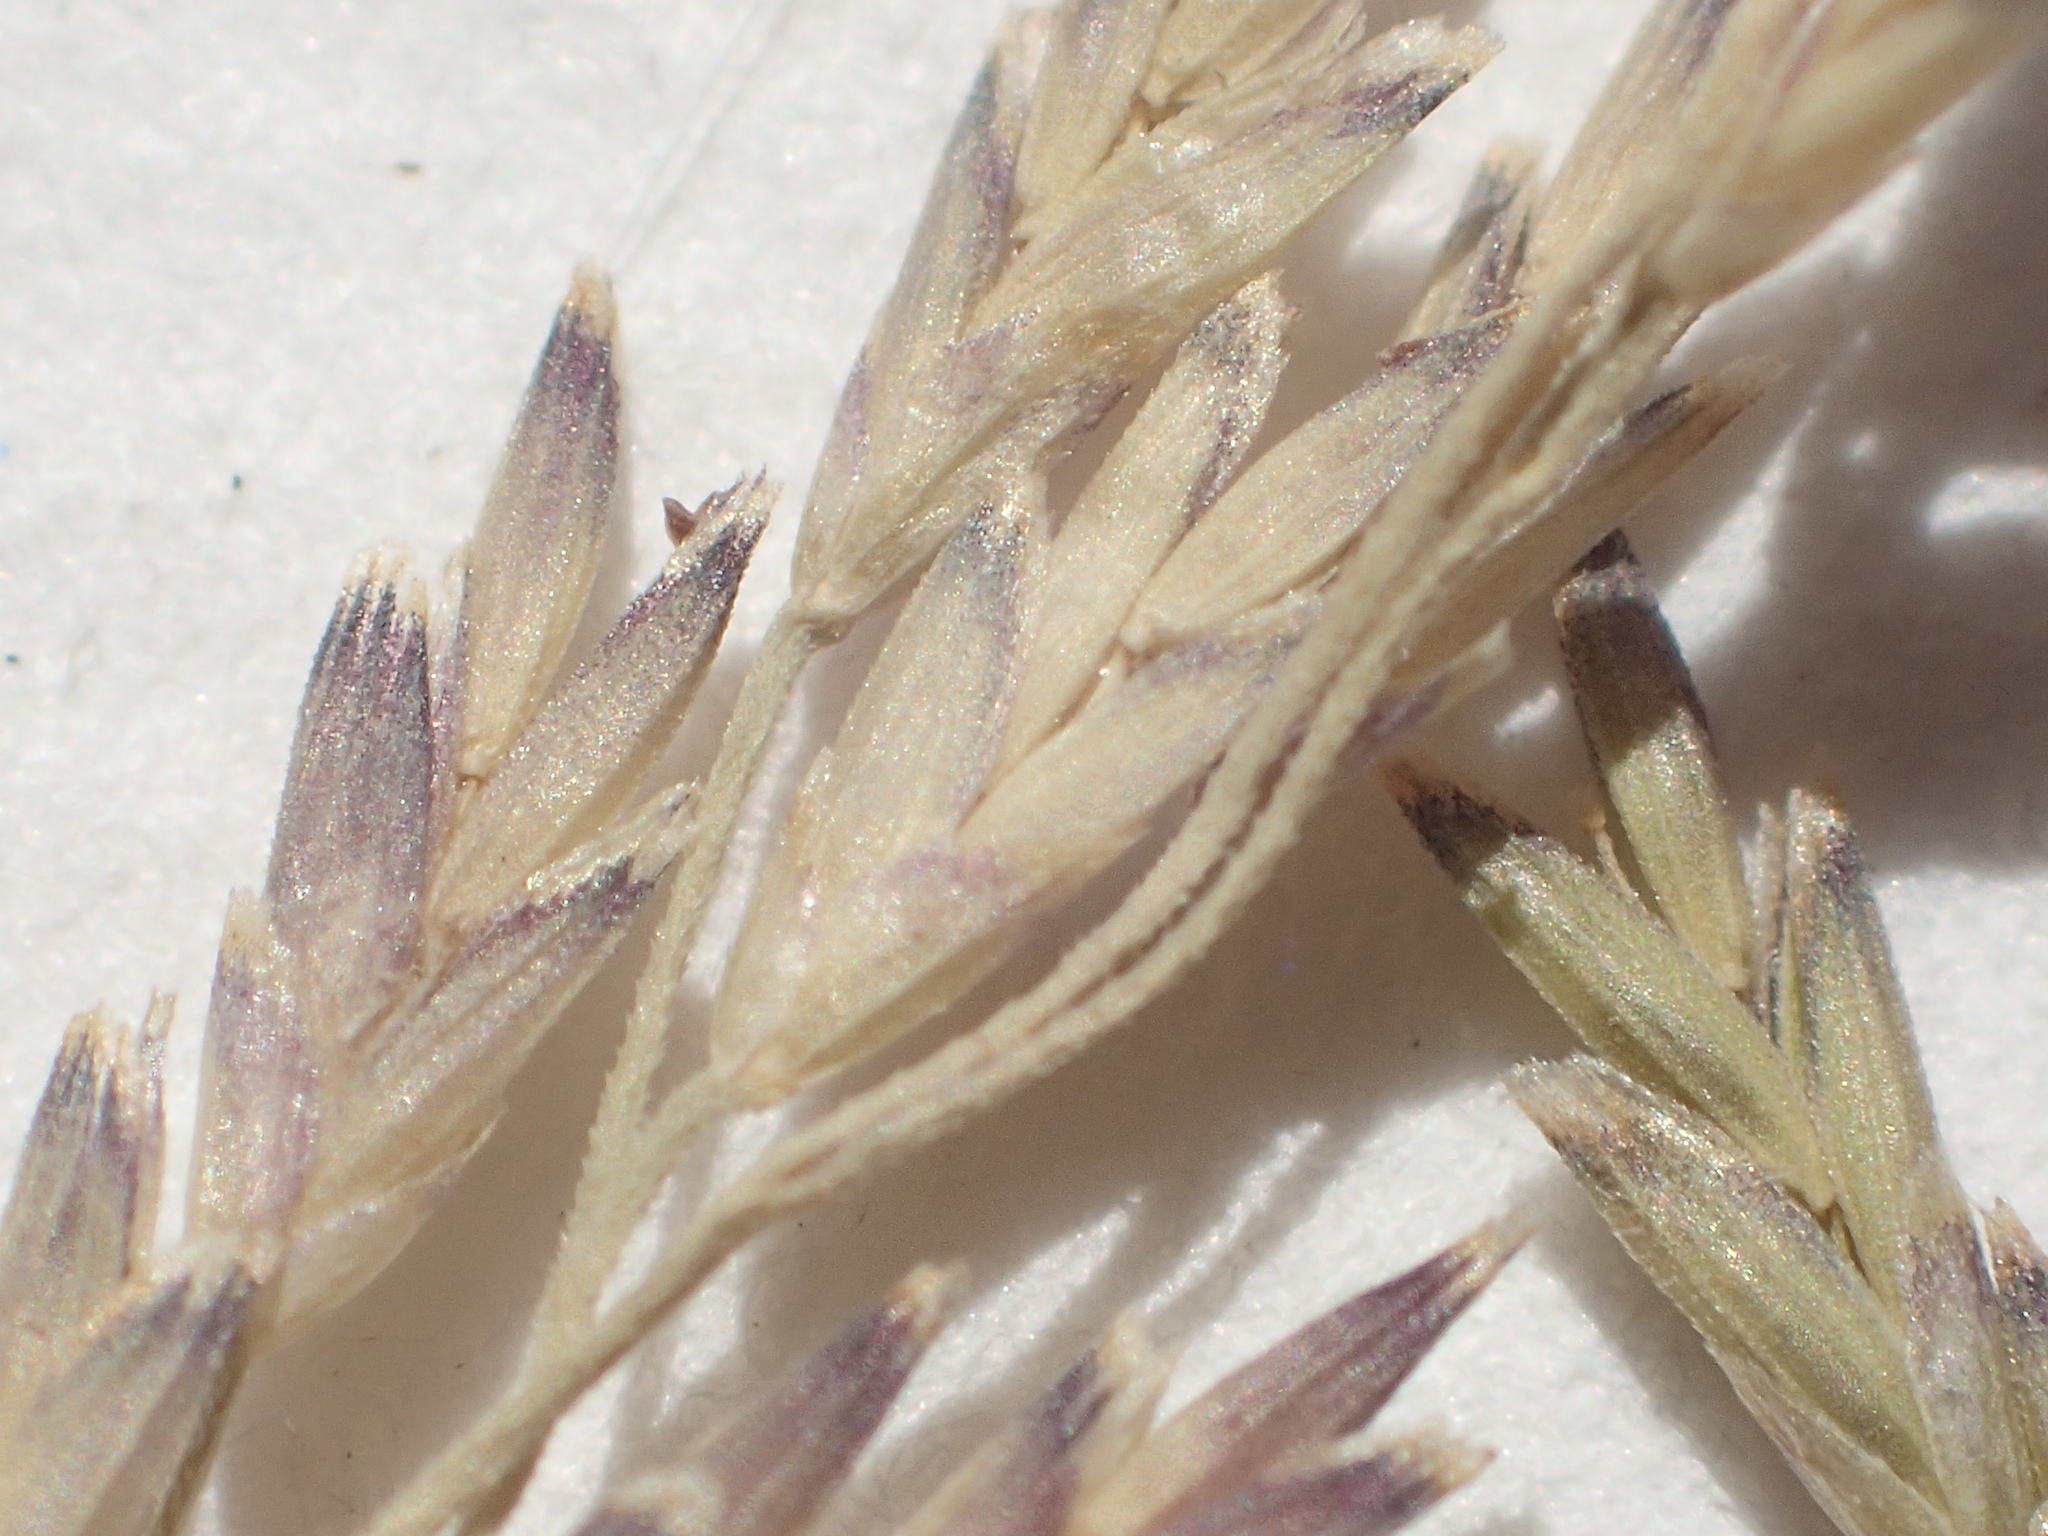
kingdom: Plantae
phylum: Tracheophyta
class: Liliopsida
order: Poales
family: Poaceae
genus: Torreyochloa
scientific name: Torreyochloa pallida
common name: Pale false mannagrass
